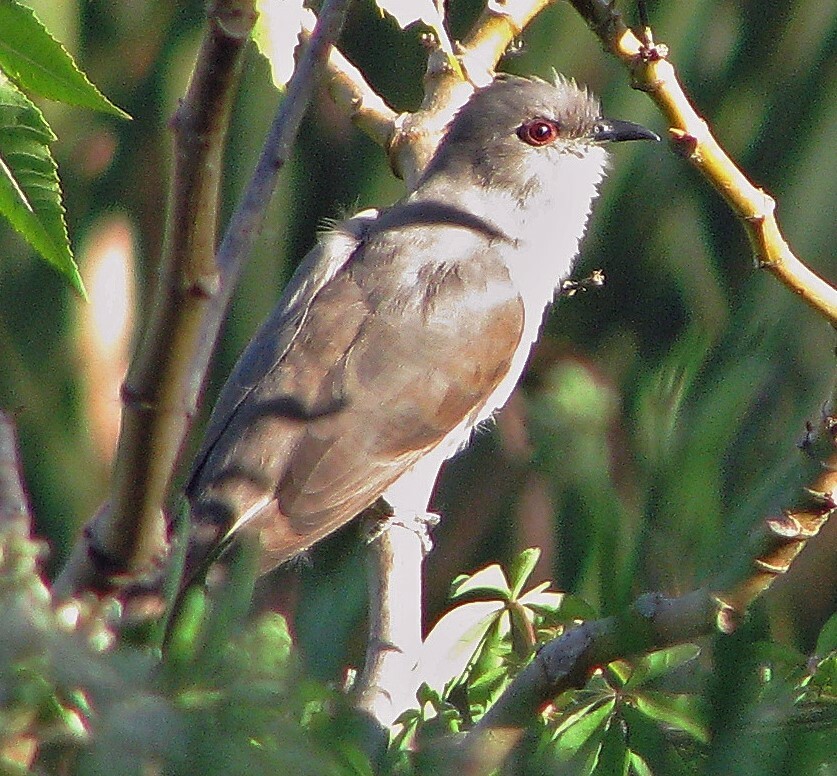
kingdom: Animalia
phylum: Chordata
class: Aves
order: Cuculiformes
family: Cuculidae
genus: Coccyzus
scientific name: Coccyzus cinereus
